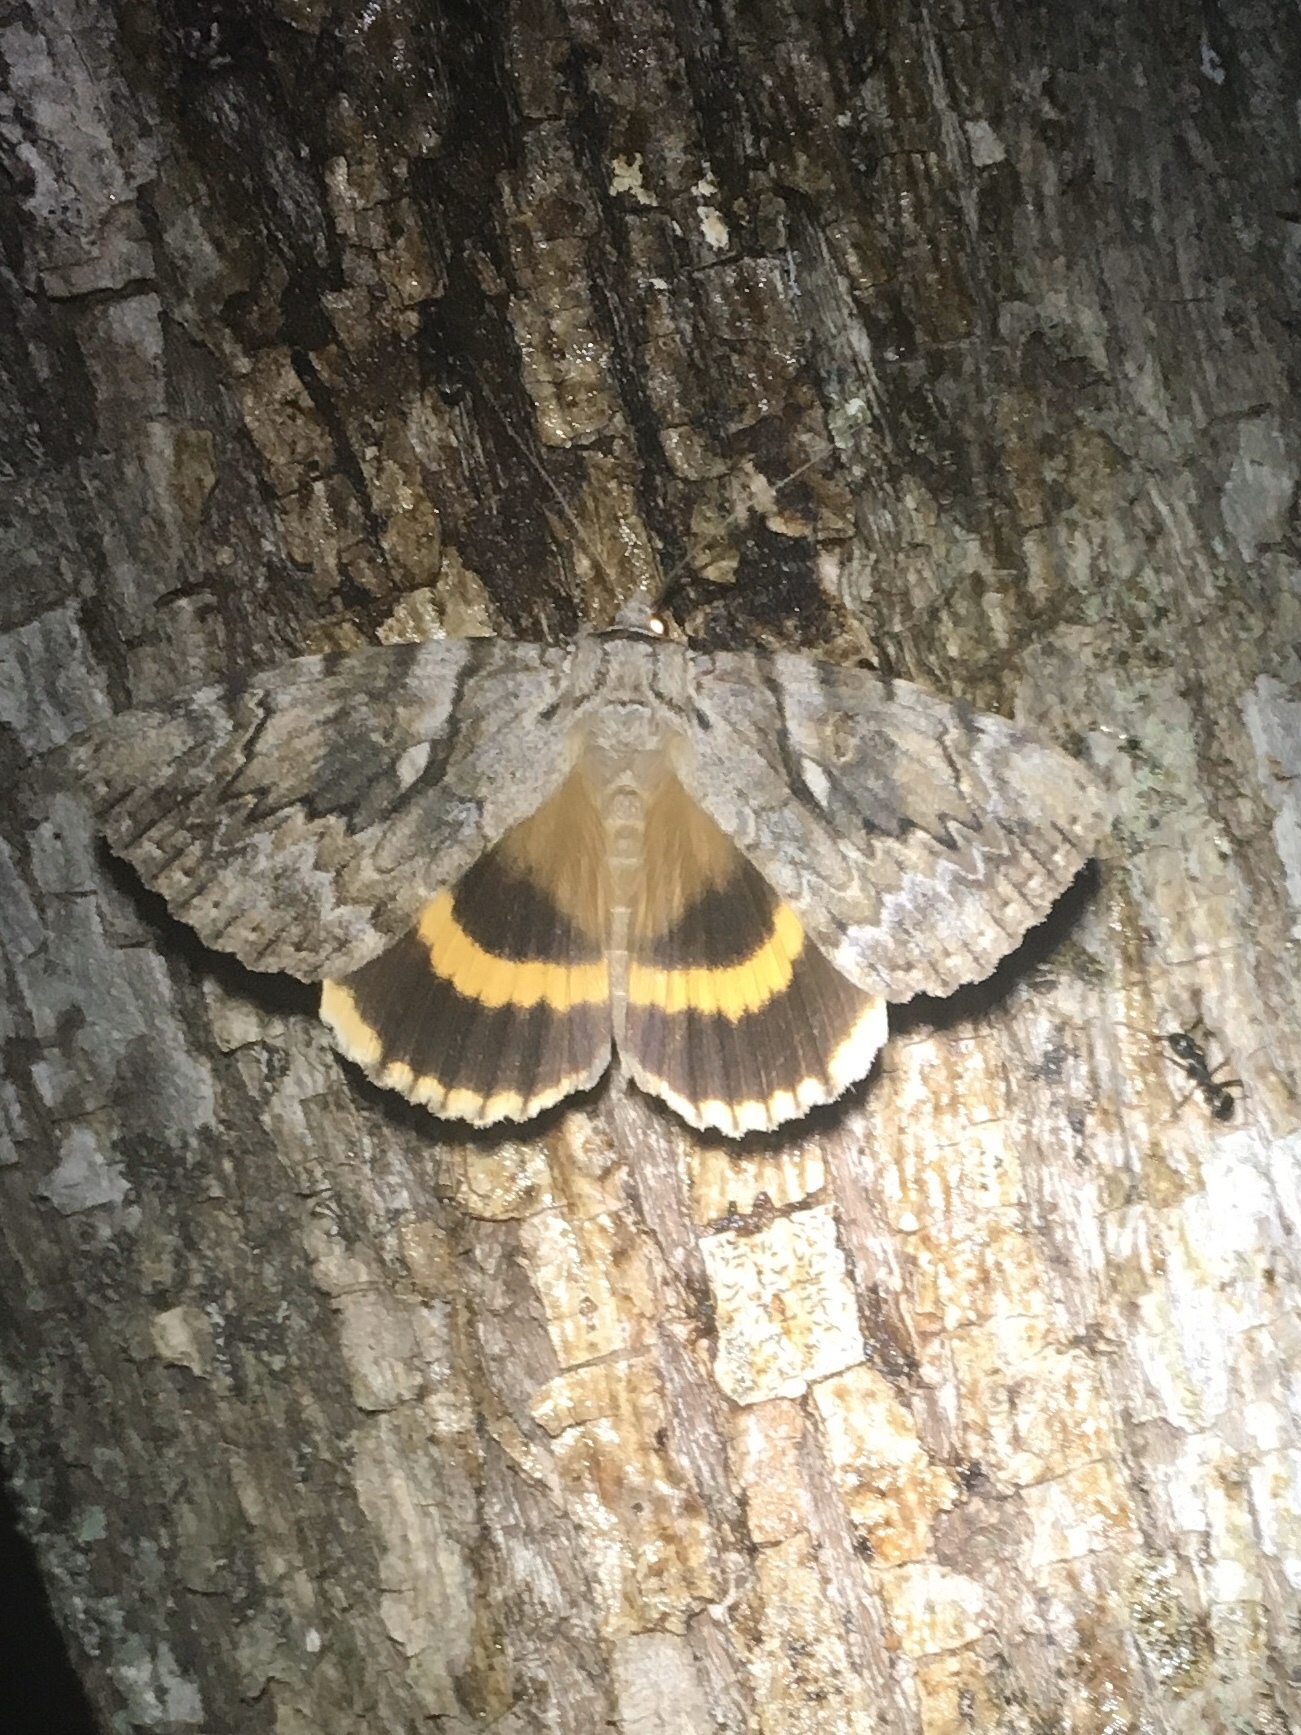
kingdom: Animalia
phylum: Arthropoda
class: Insecta
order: Lepidoptera
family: Erebidae
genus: Catocala
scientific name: Catocala cerogama
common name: Yellow banded underwing
